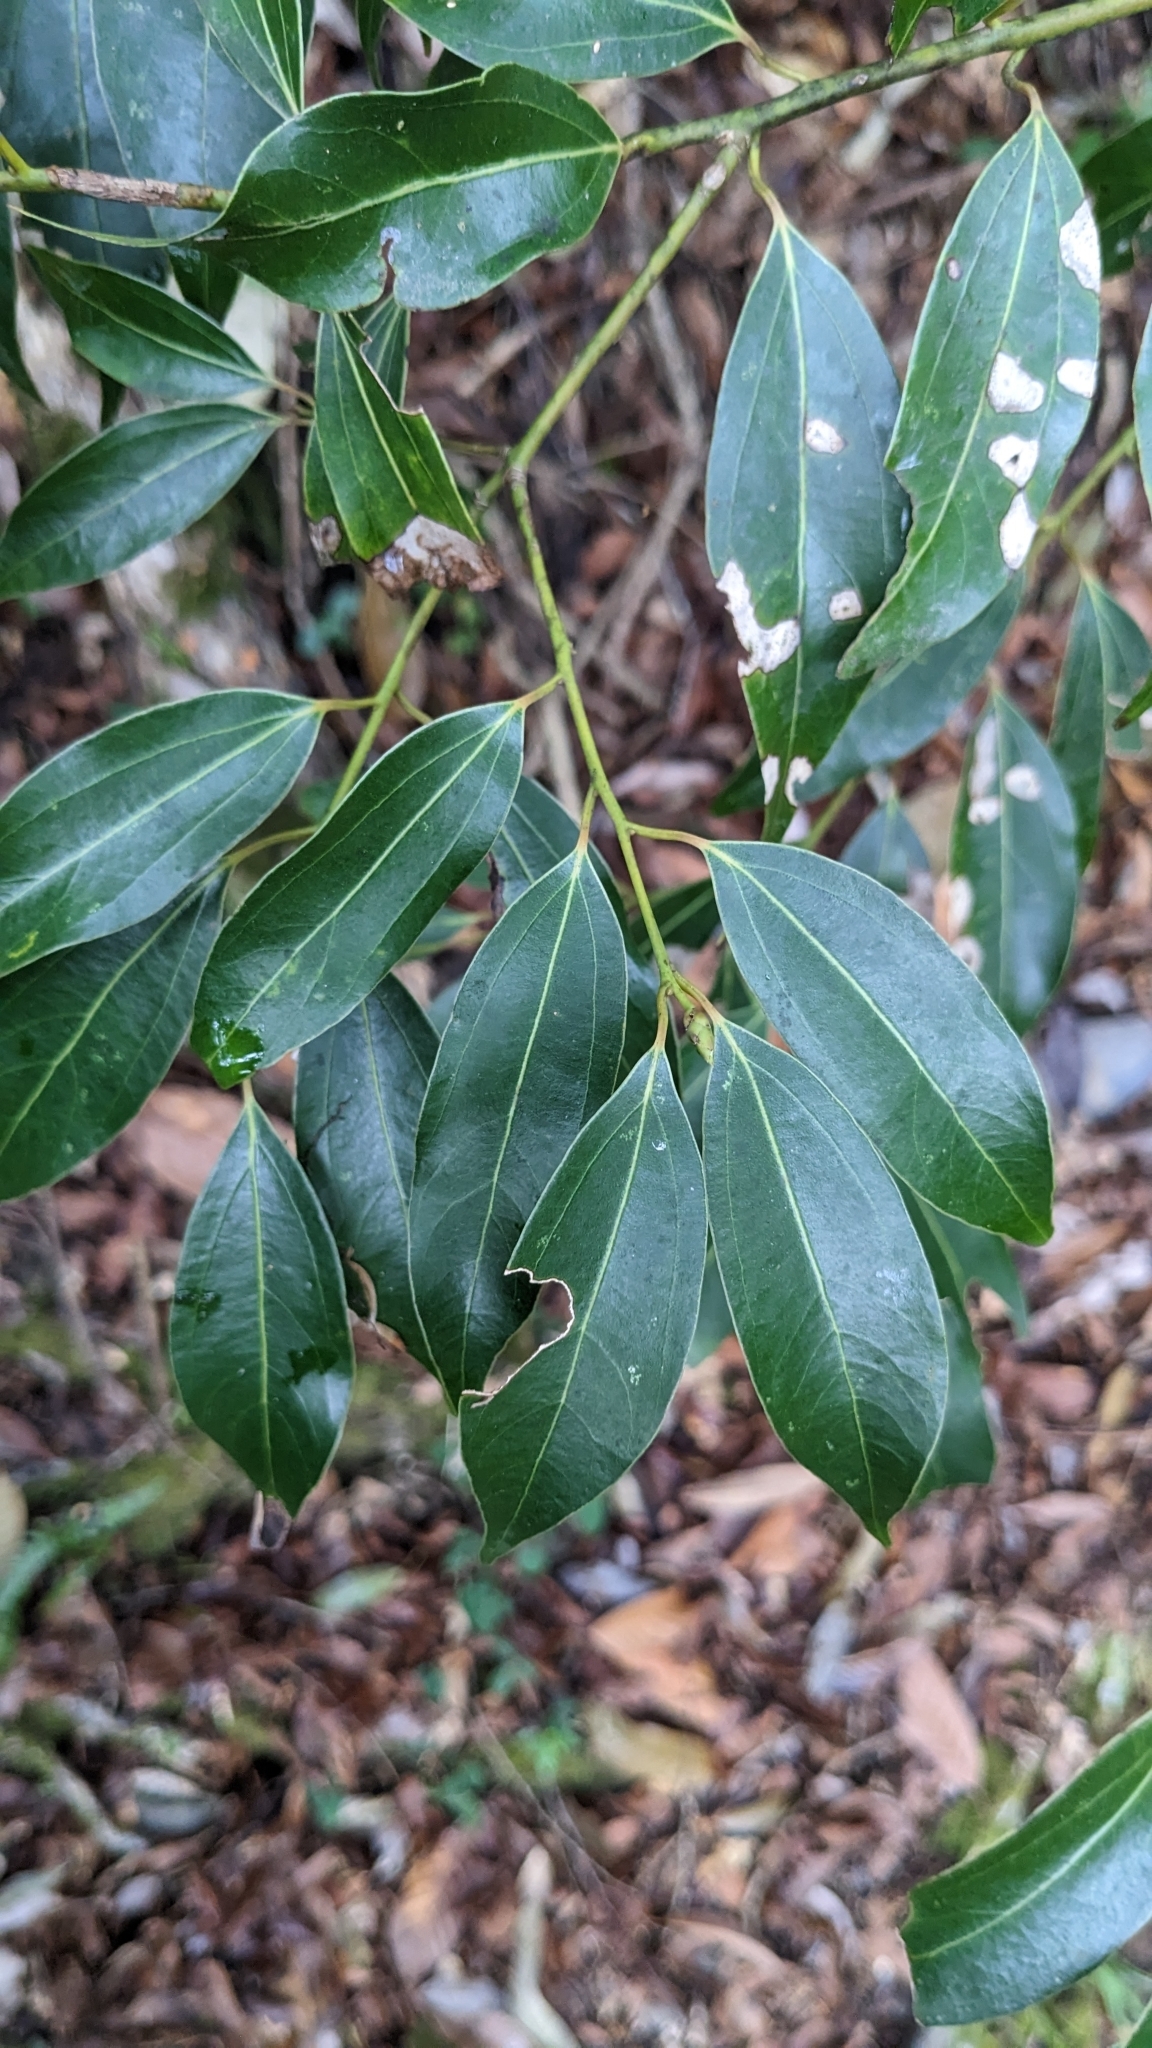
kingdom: Plantae
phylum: Tracheophyta
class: Magnoliopsida
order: Laurales
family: Lauraceae
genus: Cinnamomum
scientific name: Cinnamomum chekiangense
